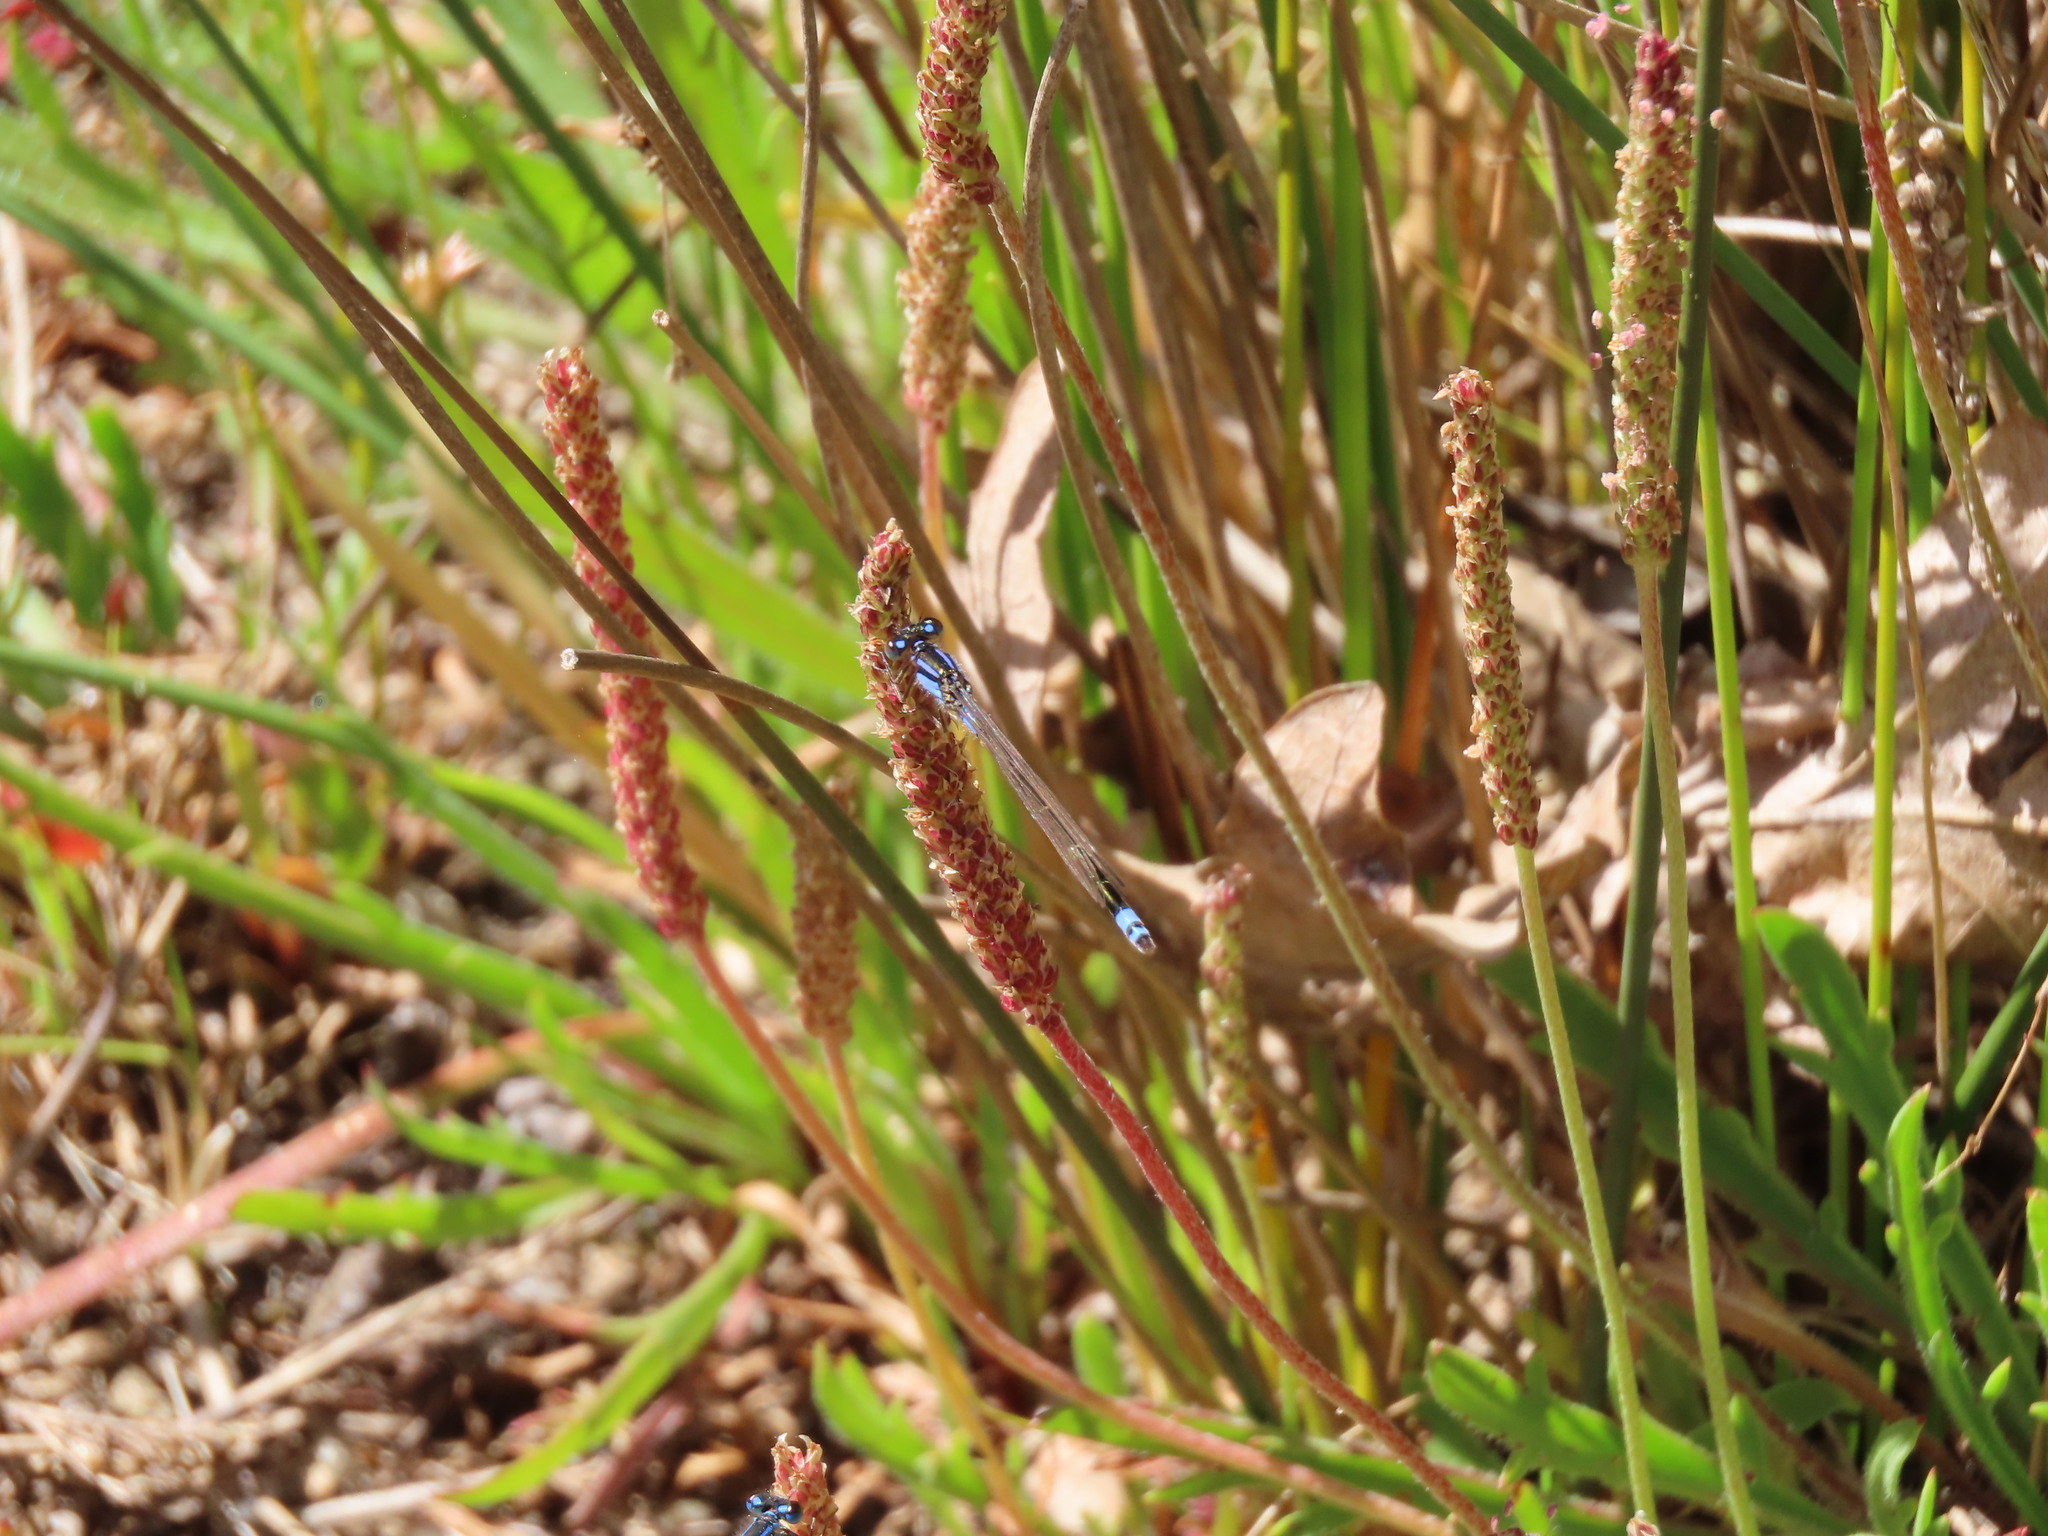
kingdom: Animalia
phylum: Arthropoda
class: Insecta
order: Odonata
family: Coenagrionidae
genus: Ischnura
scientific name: Ischnura heterosticta
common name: Common bluetail
